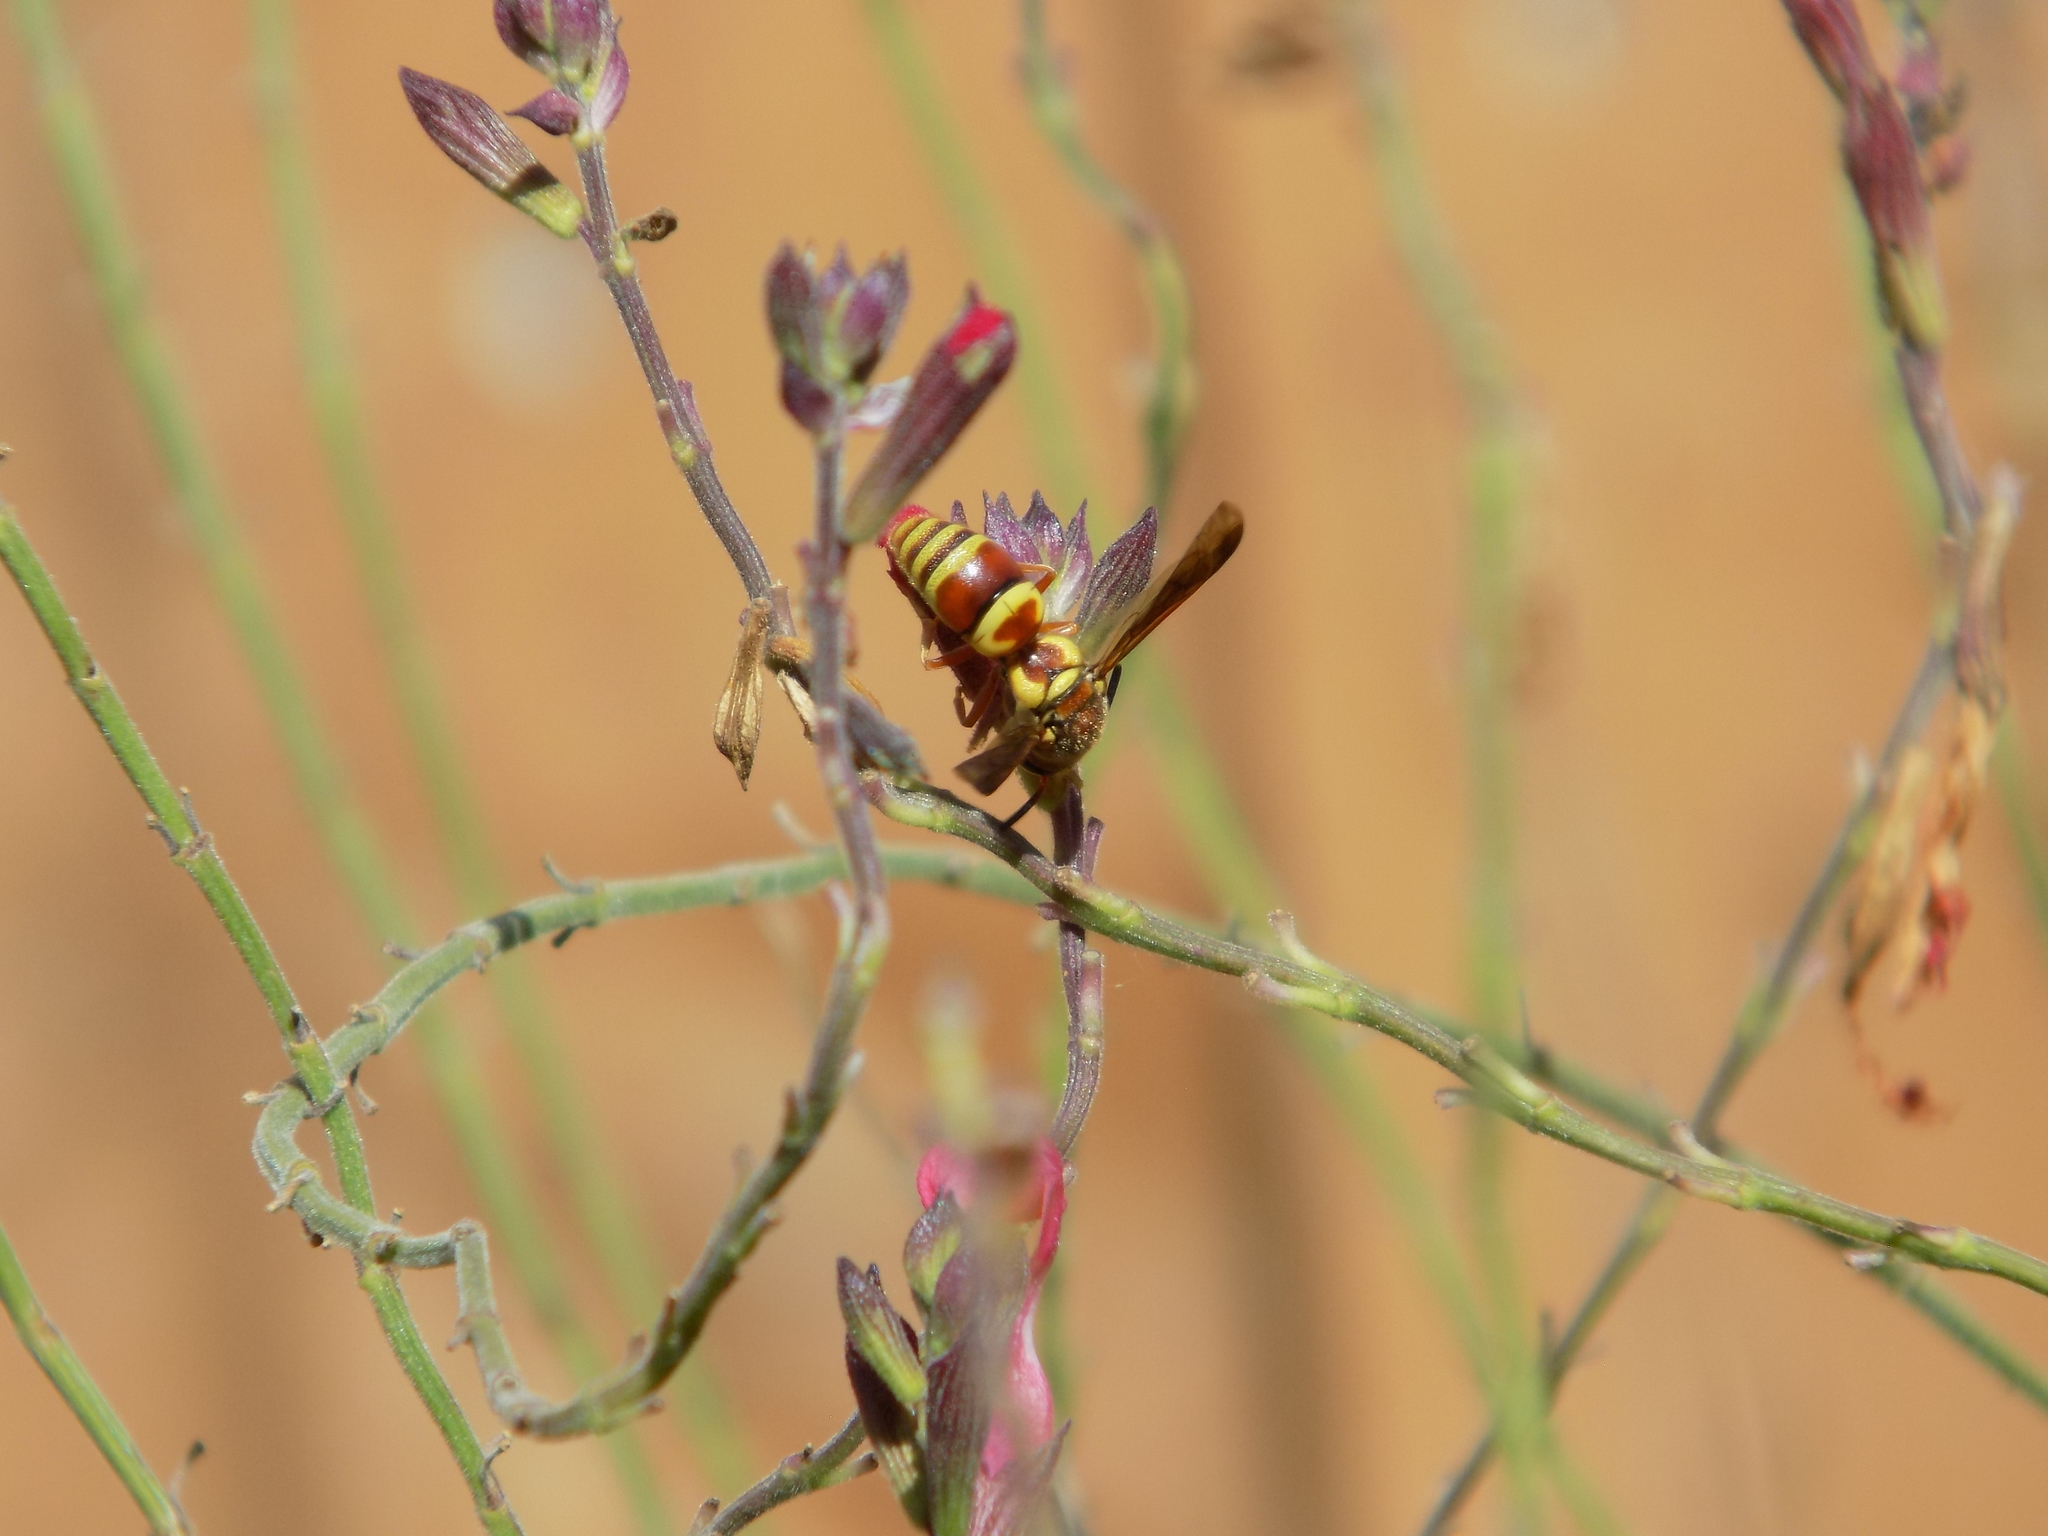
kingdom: Animalia
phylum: Arthropoda
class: Insecta
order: Hymenoptera
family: Eumenidae
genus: Euodynerus
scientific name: Euodynerus pratensis
